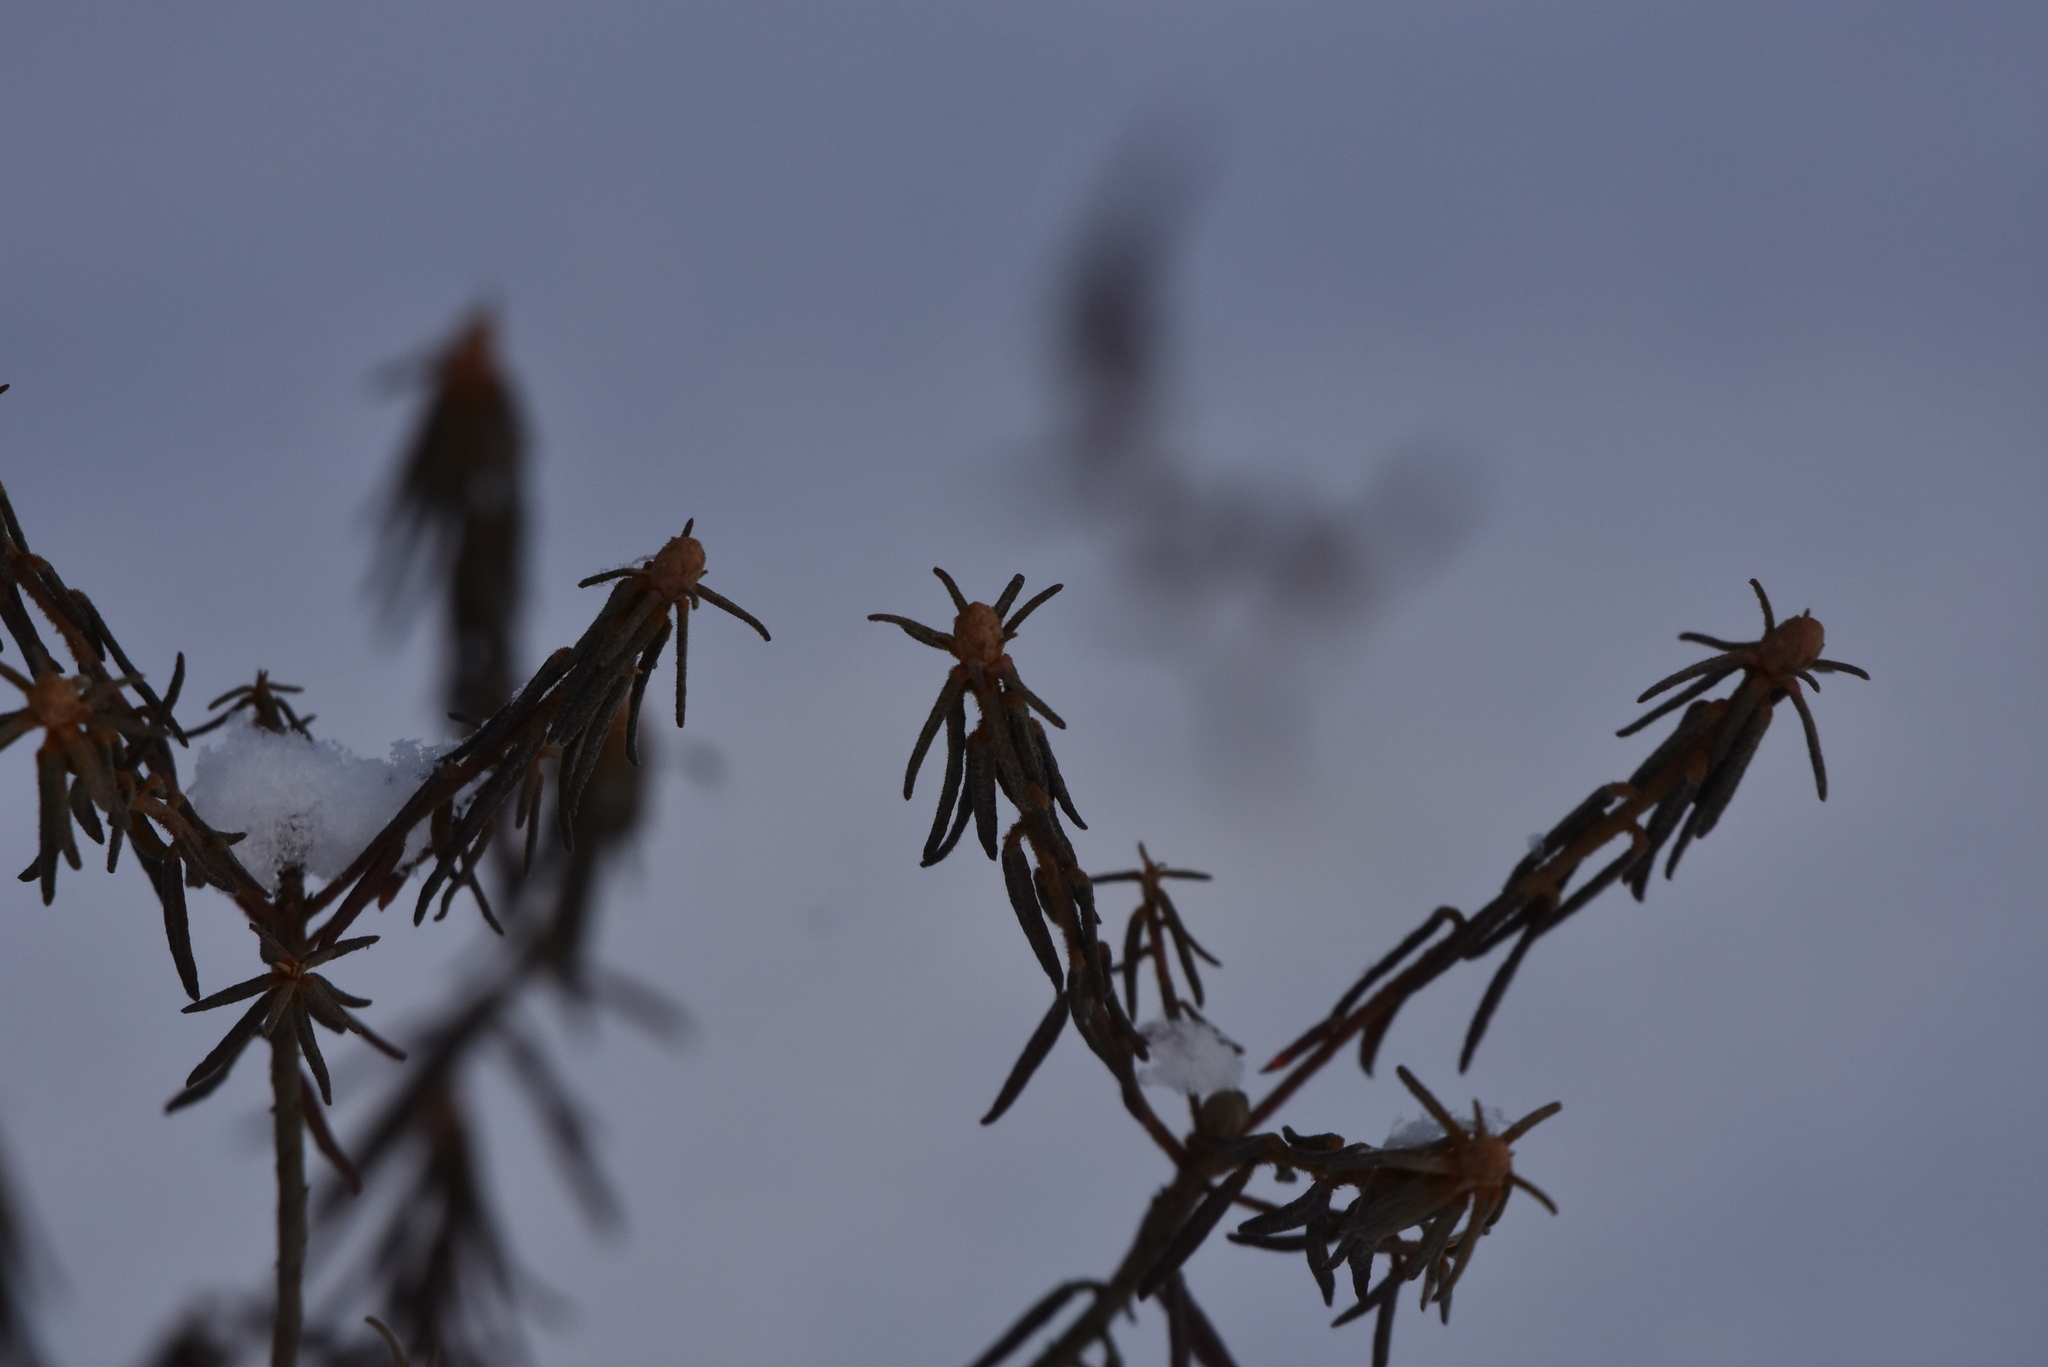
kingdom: Plantae
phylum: Tracheophyta
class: Magnoliopsida
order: Ericales
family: Ericaceae
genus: Rhododendron
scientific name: Rhododendron tomentosum
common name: Marsh labrador tea
